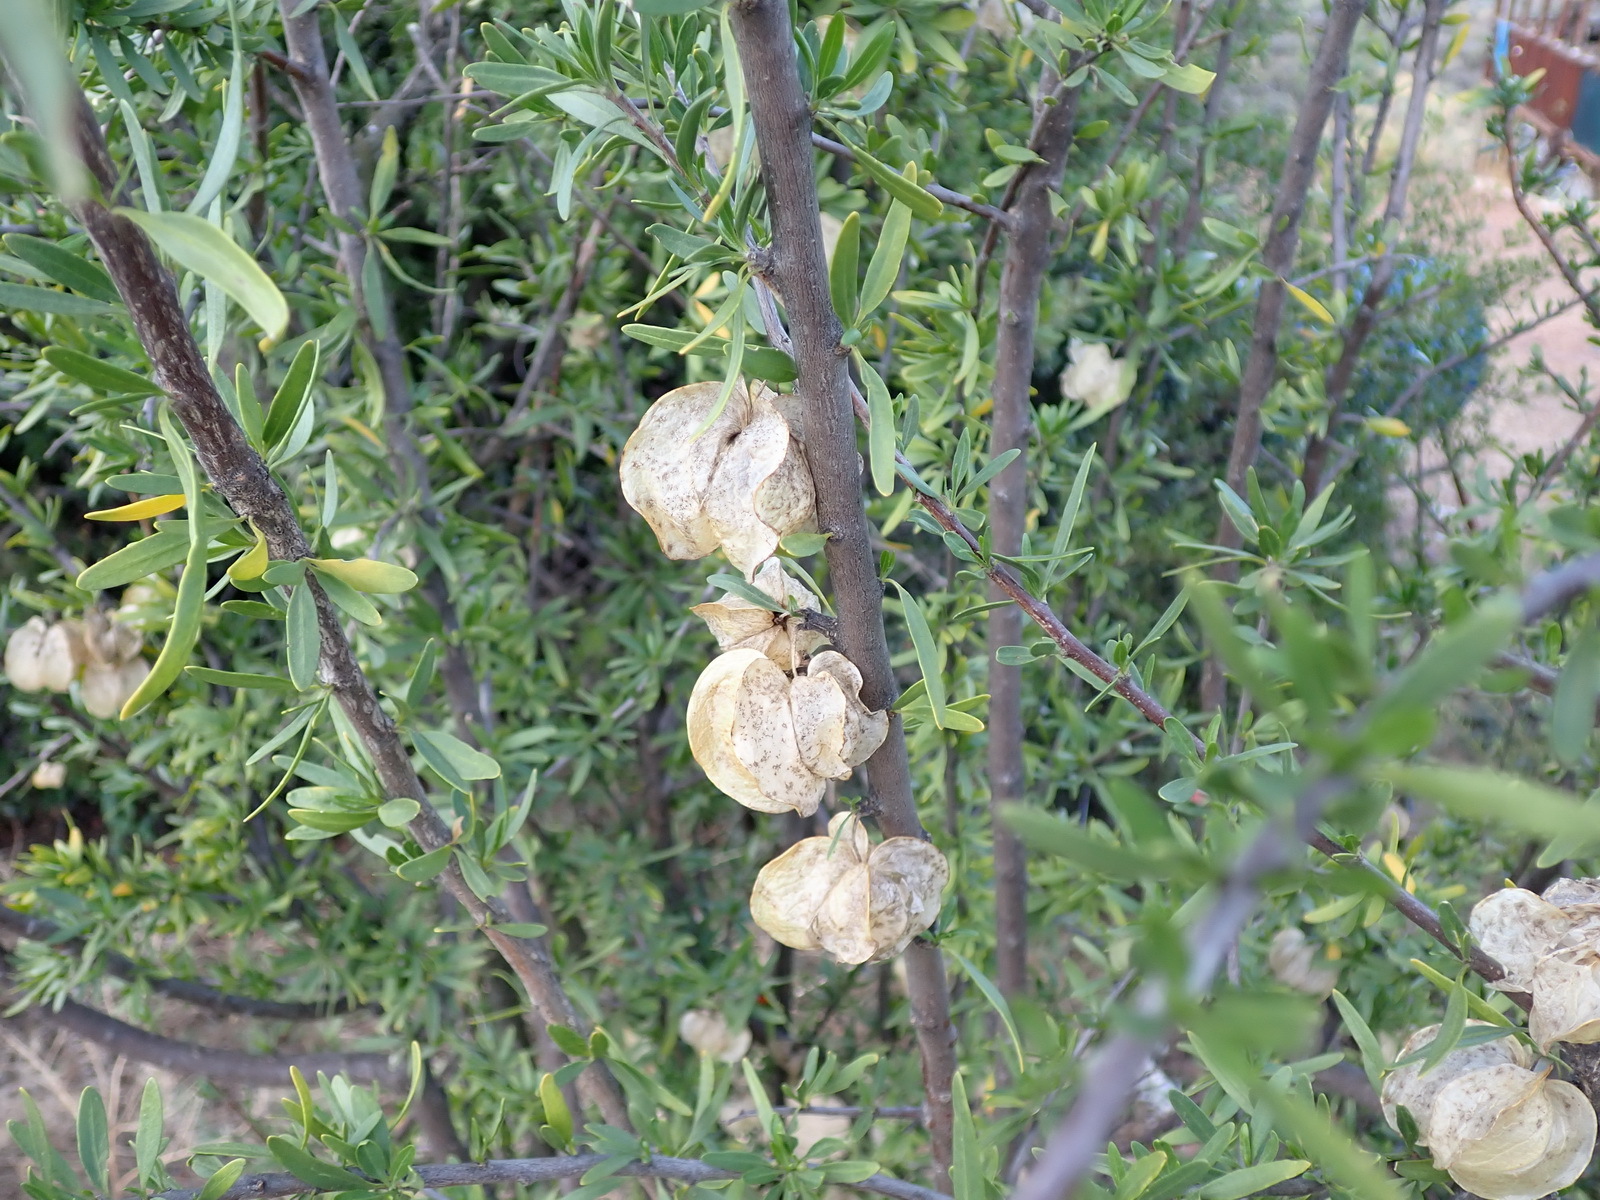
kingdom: Plantae
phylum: Tracheophyta
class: Magnoliopsida
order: Sapindales
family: Meliaceae
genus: Nymania
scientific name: Nymania capensis
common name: Chinese lantern tree
